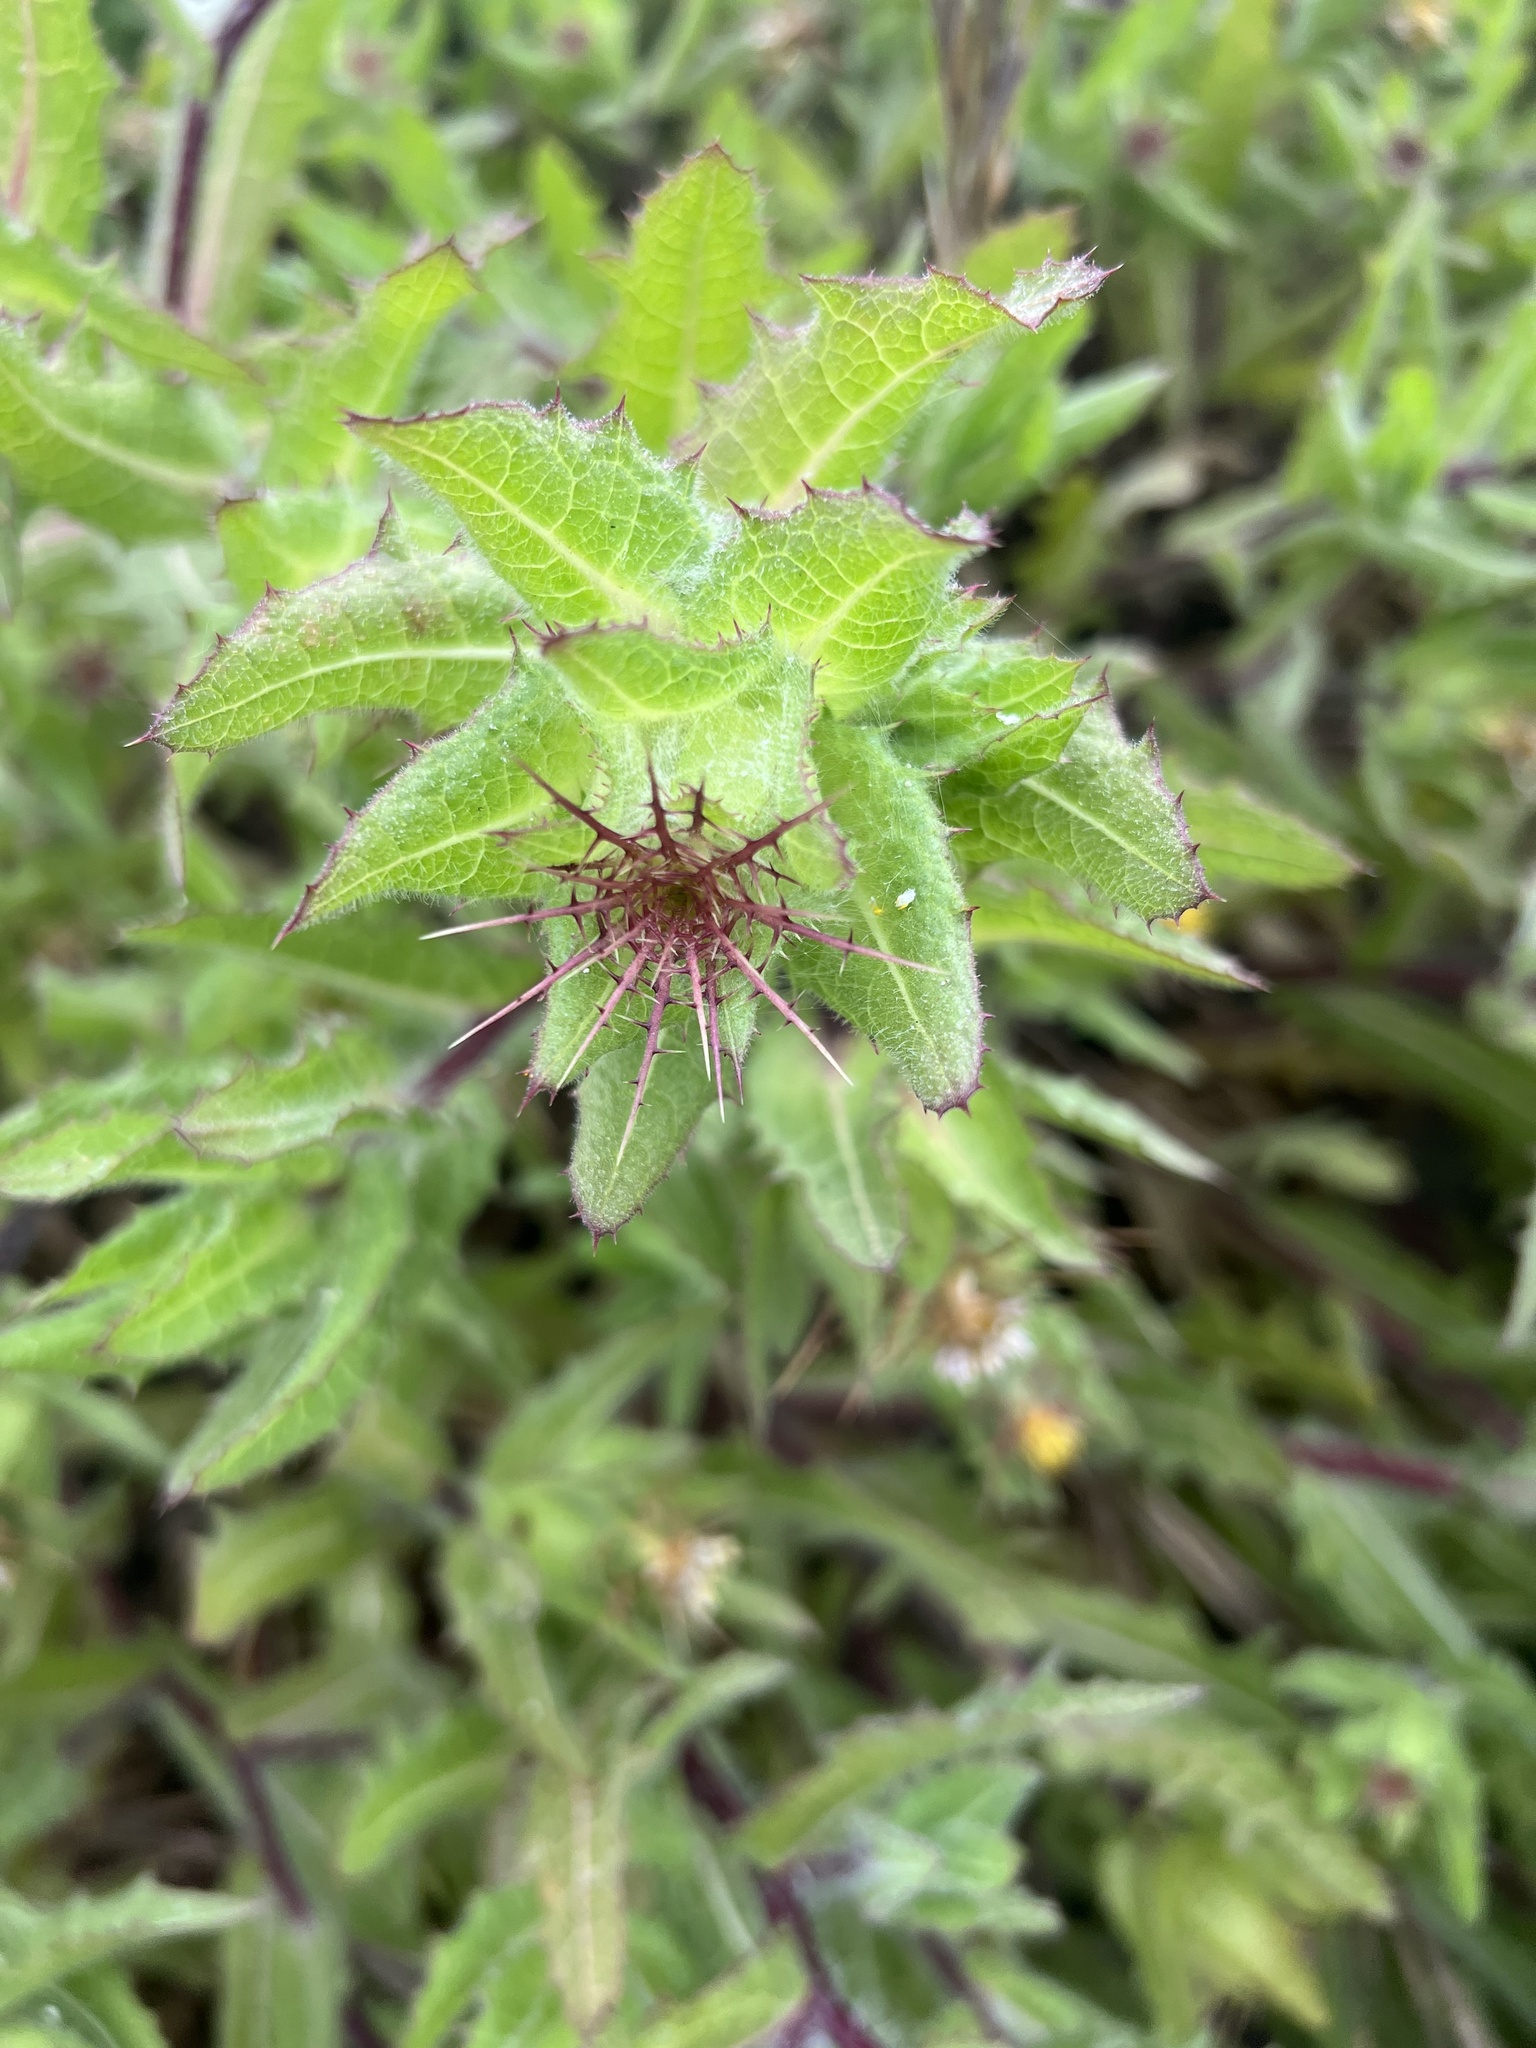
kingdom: Plantae
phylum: Tracheophyta
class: Magnoliopsida
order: Asterales
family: Asteraceae
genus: Centaurea
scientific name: Centaurea benedicta
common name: Blessed thistle
